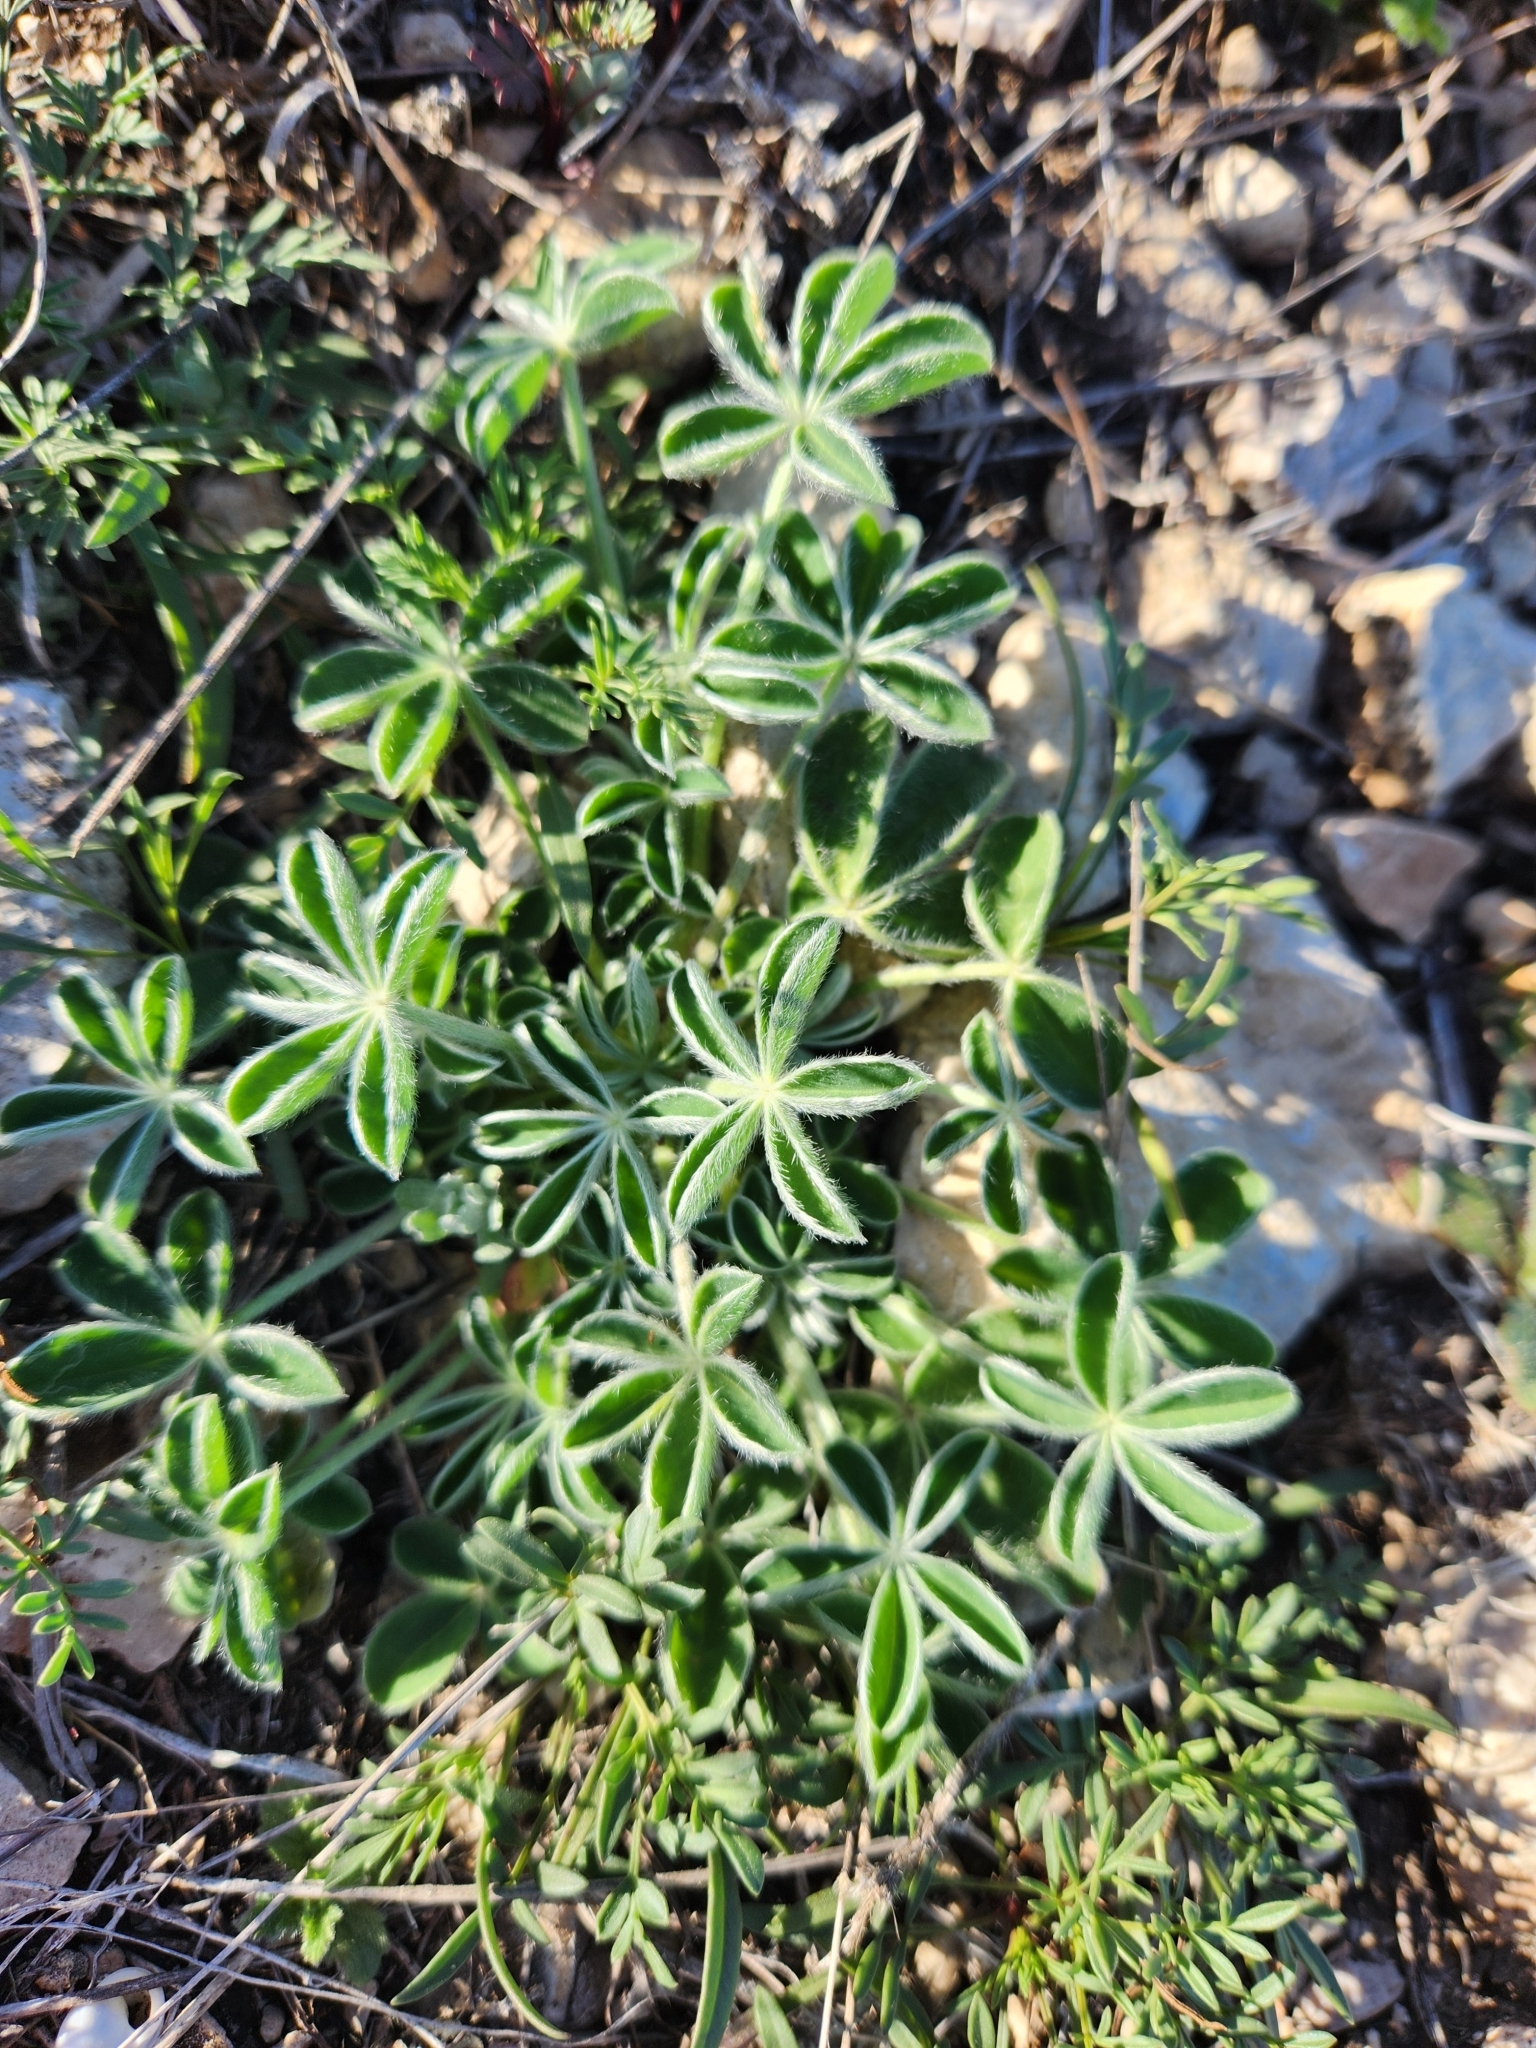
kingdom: Plantae
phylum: Tracheophyta
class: Magnoliopsida
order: Fabales
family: Fabaceae
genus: Lupinus
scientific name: Lupinus texensis
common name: Texas bluebonnet
